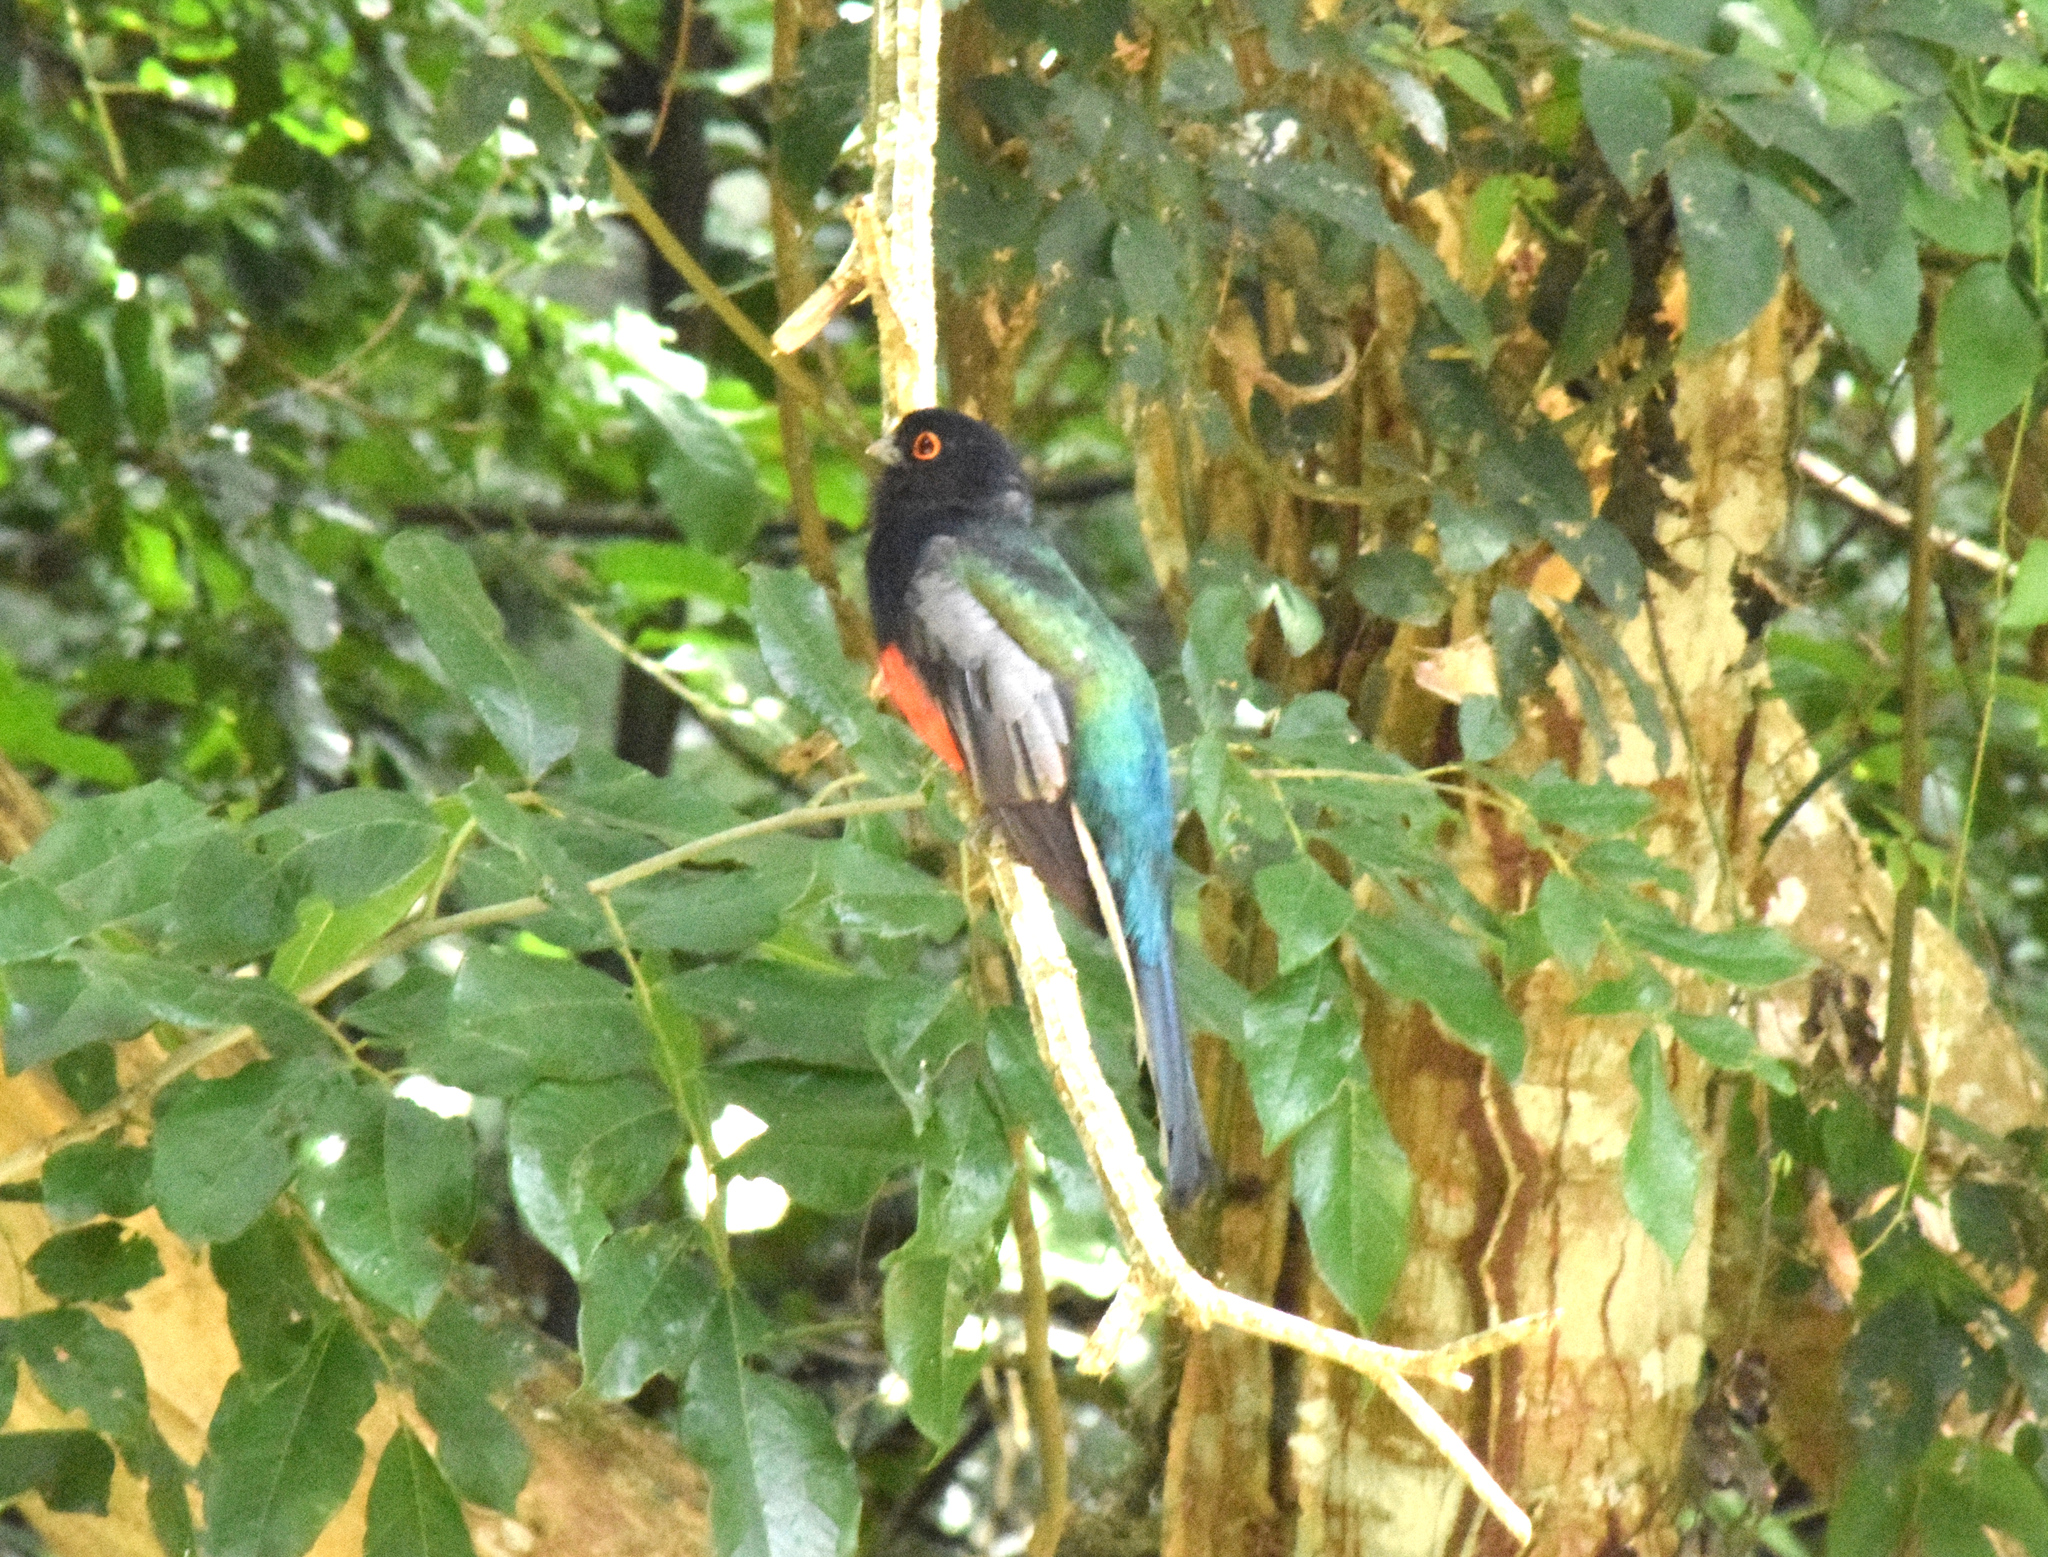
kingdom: Animalia
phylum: Chordata
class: Aves
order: Trogoniformes
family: Trogonidae
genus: Trogon
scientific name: Trogon surrucura
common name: Surucua trogon
